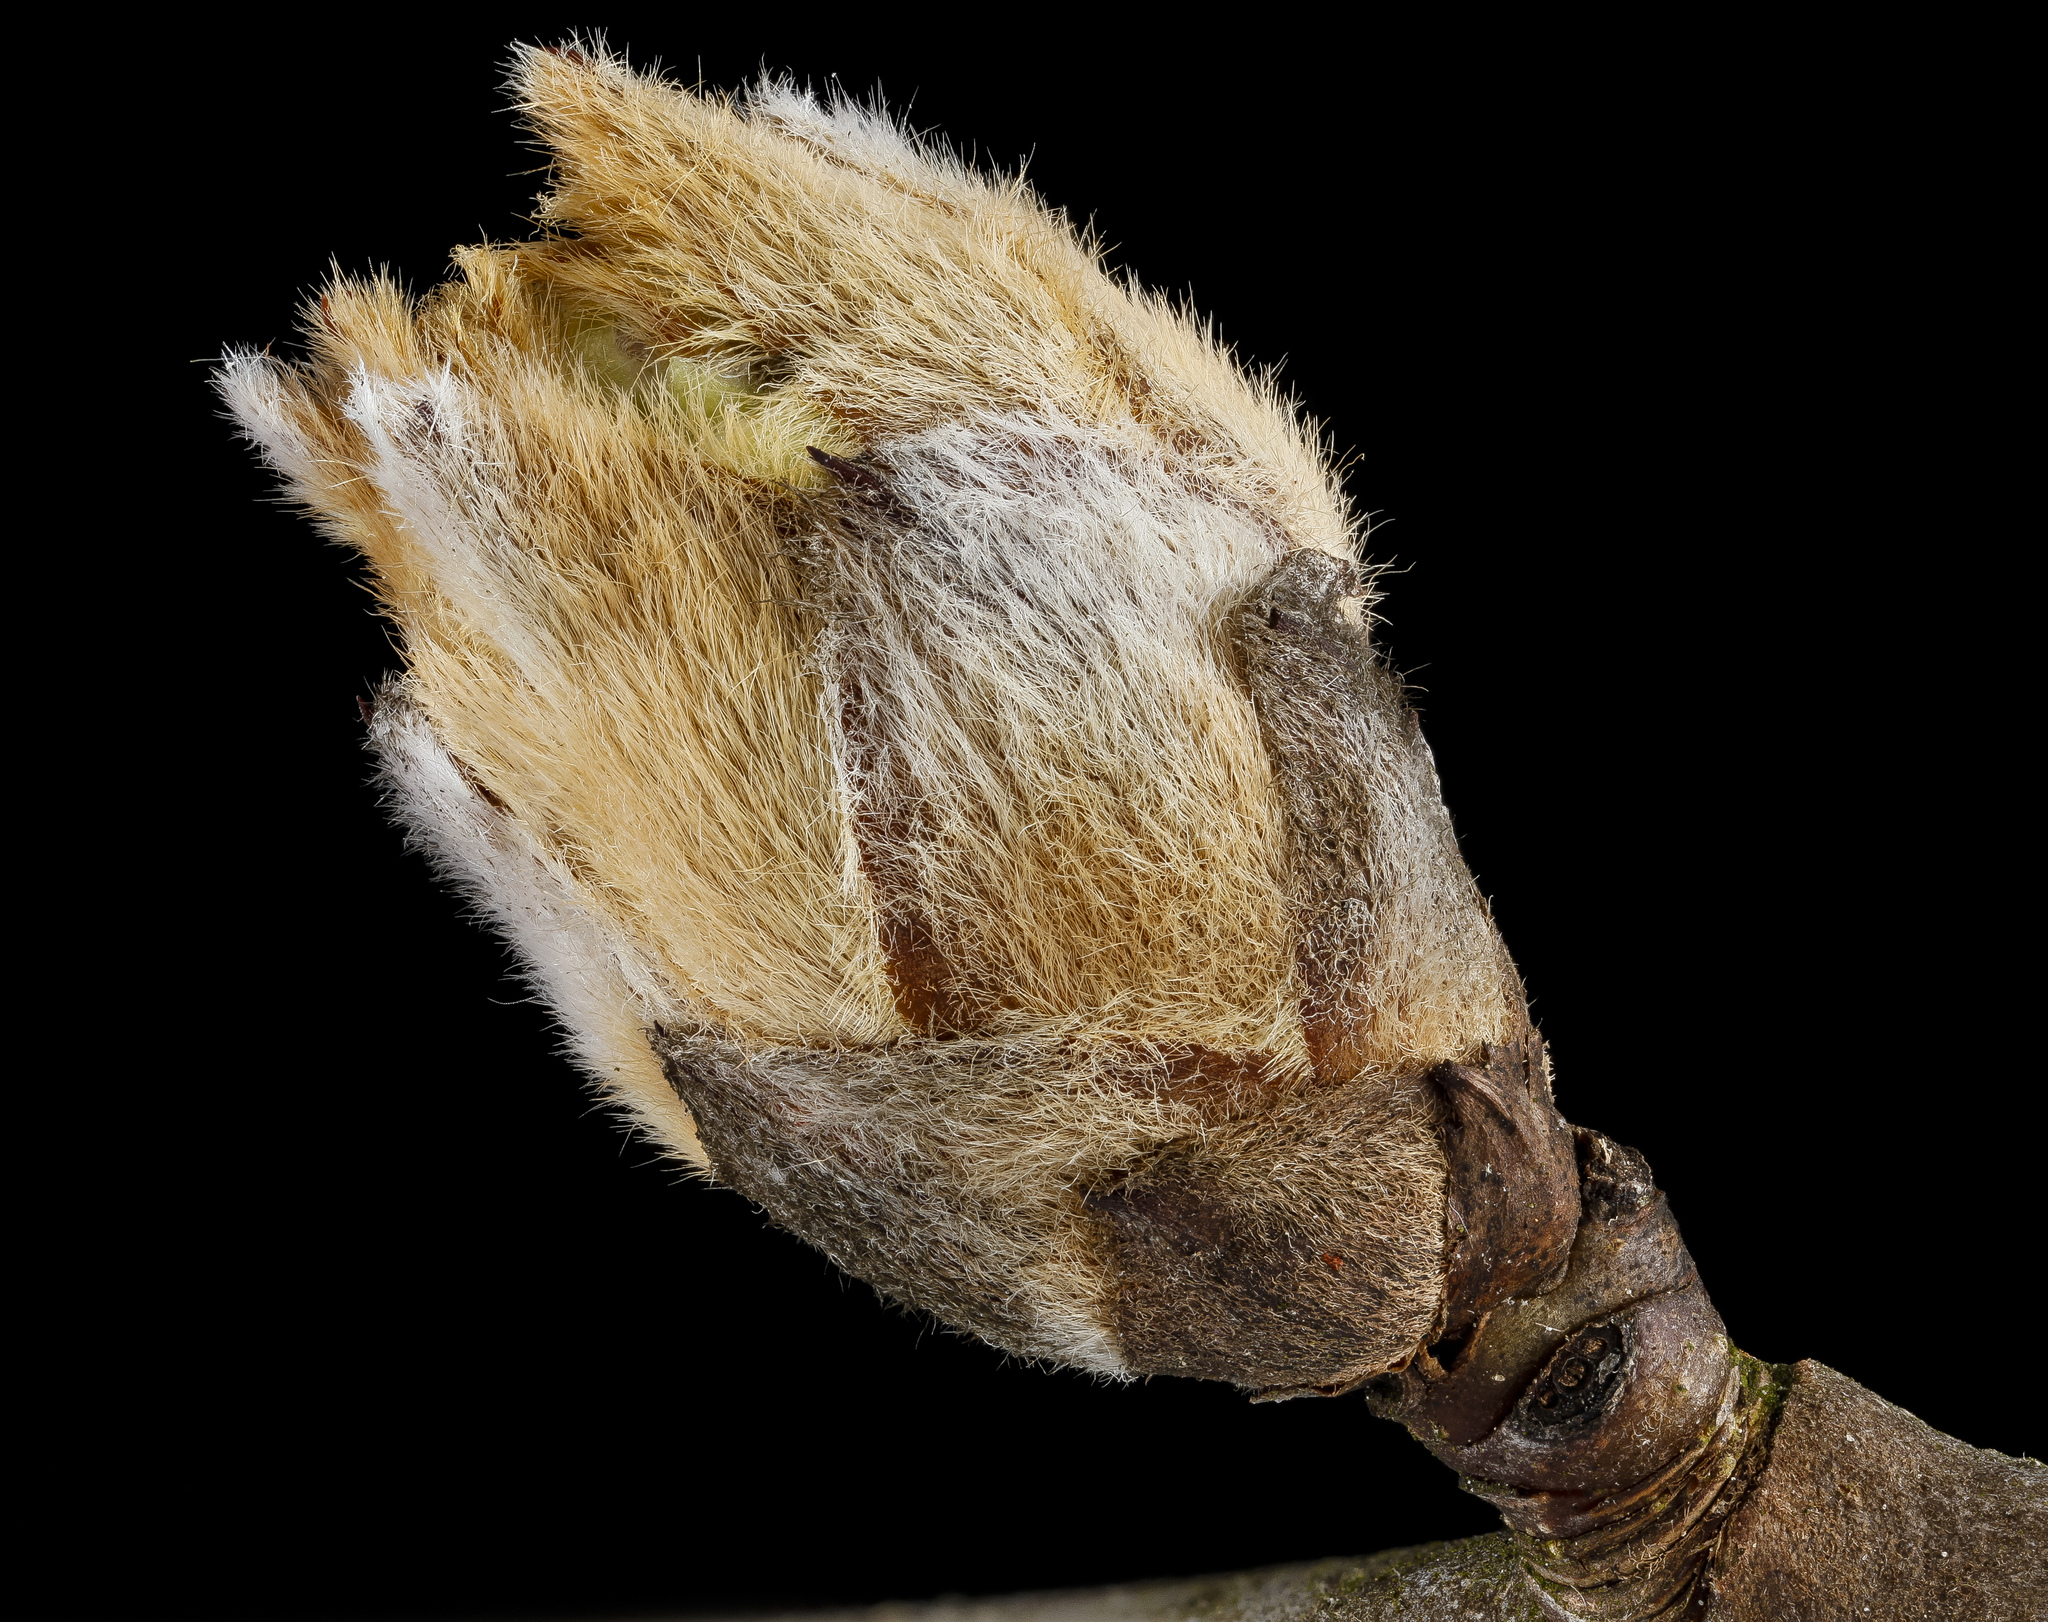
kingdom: Plantae
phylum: Tracheophyta
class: Magnoliopsida
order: Rosales
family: Rosaceae
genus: Pyrus
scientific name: Pyrus calleryana
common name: Callery pear
